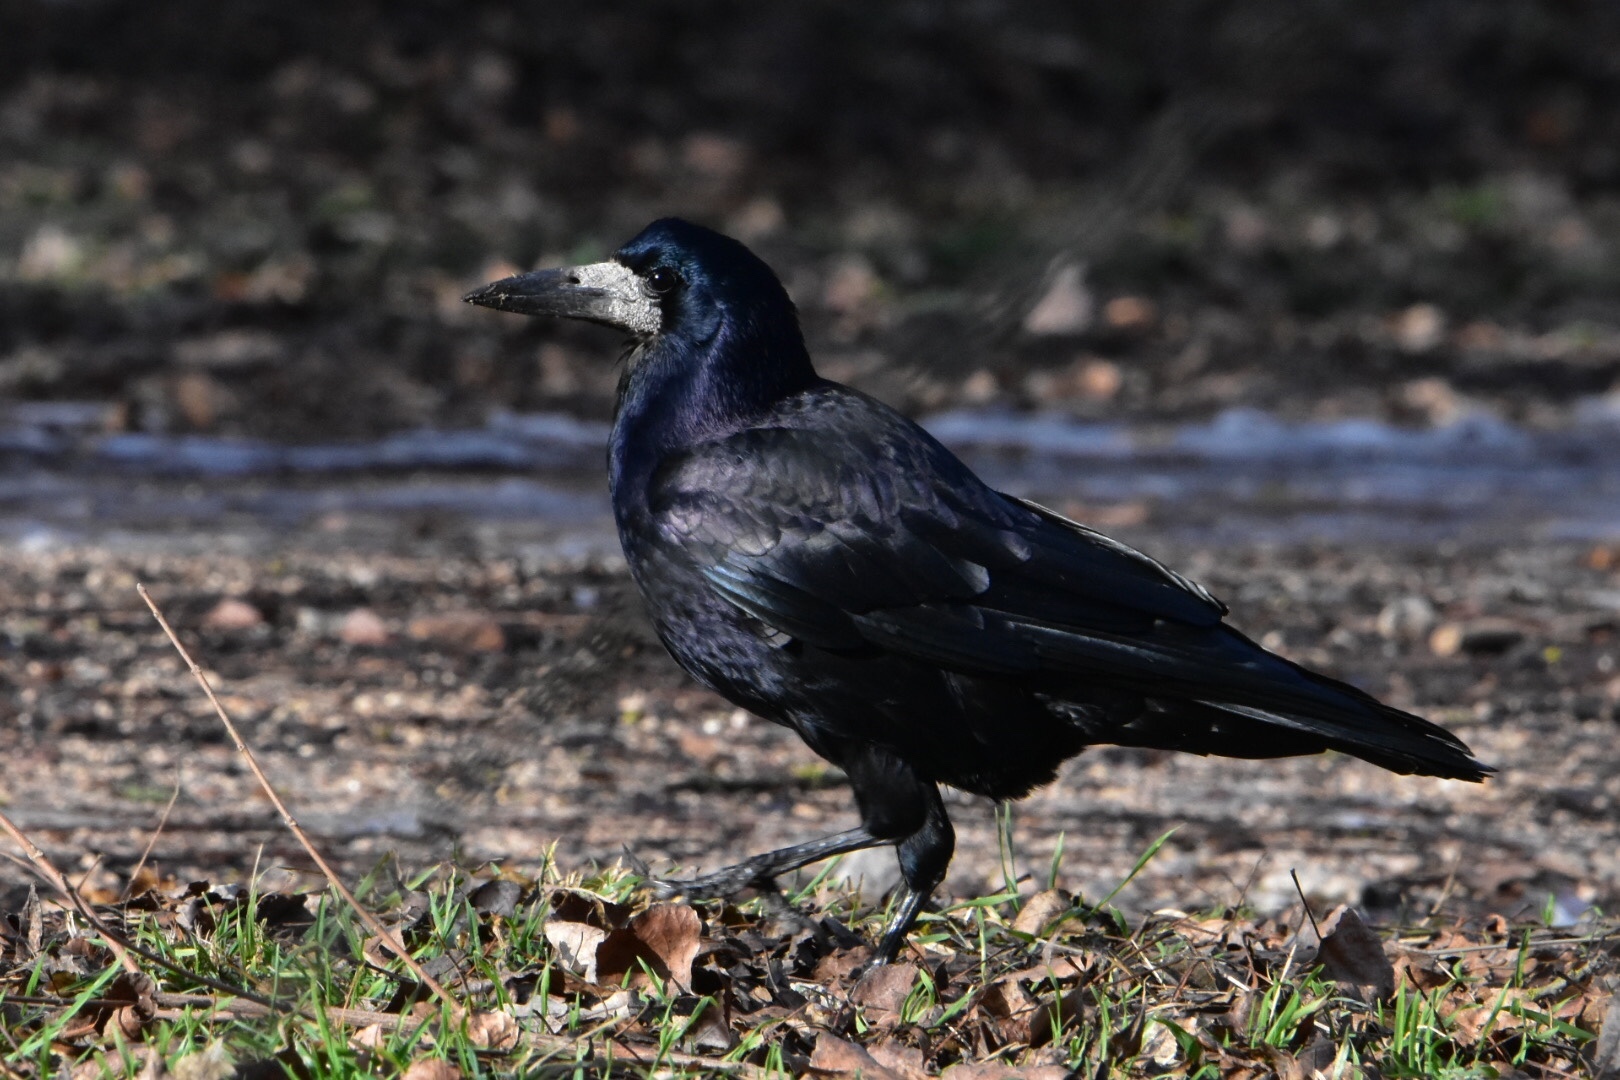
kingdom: Animalia
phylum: Chordata
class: Aves
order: Passeriformes
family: Corvidae
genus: Corvus
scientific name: Corvus frugilegus
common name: Rook
